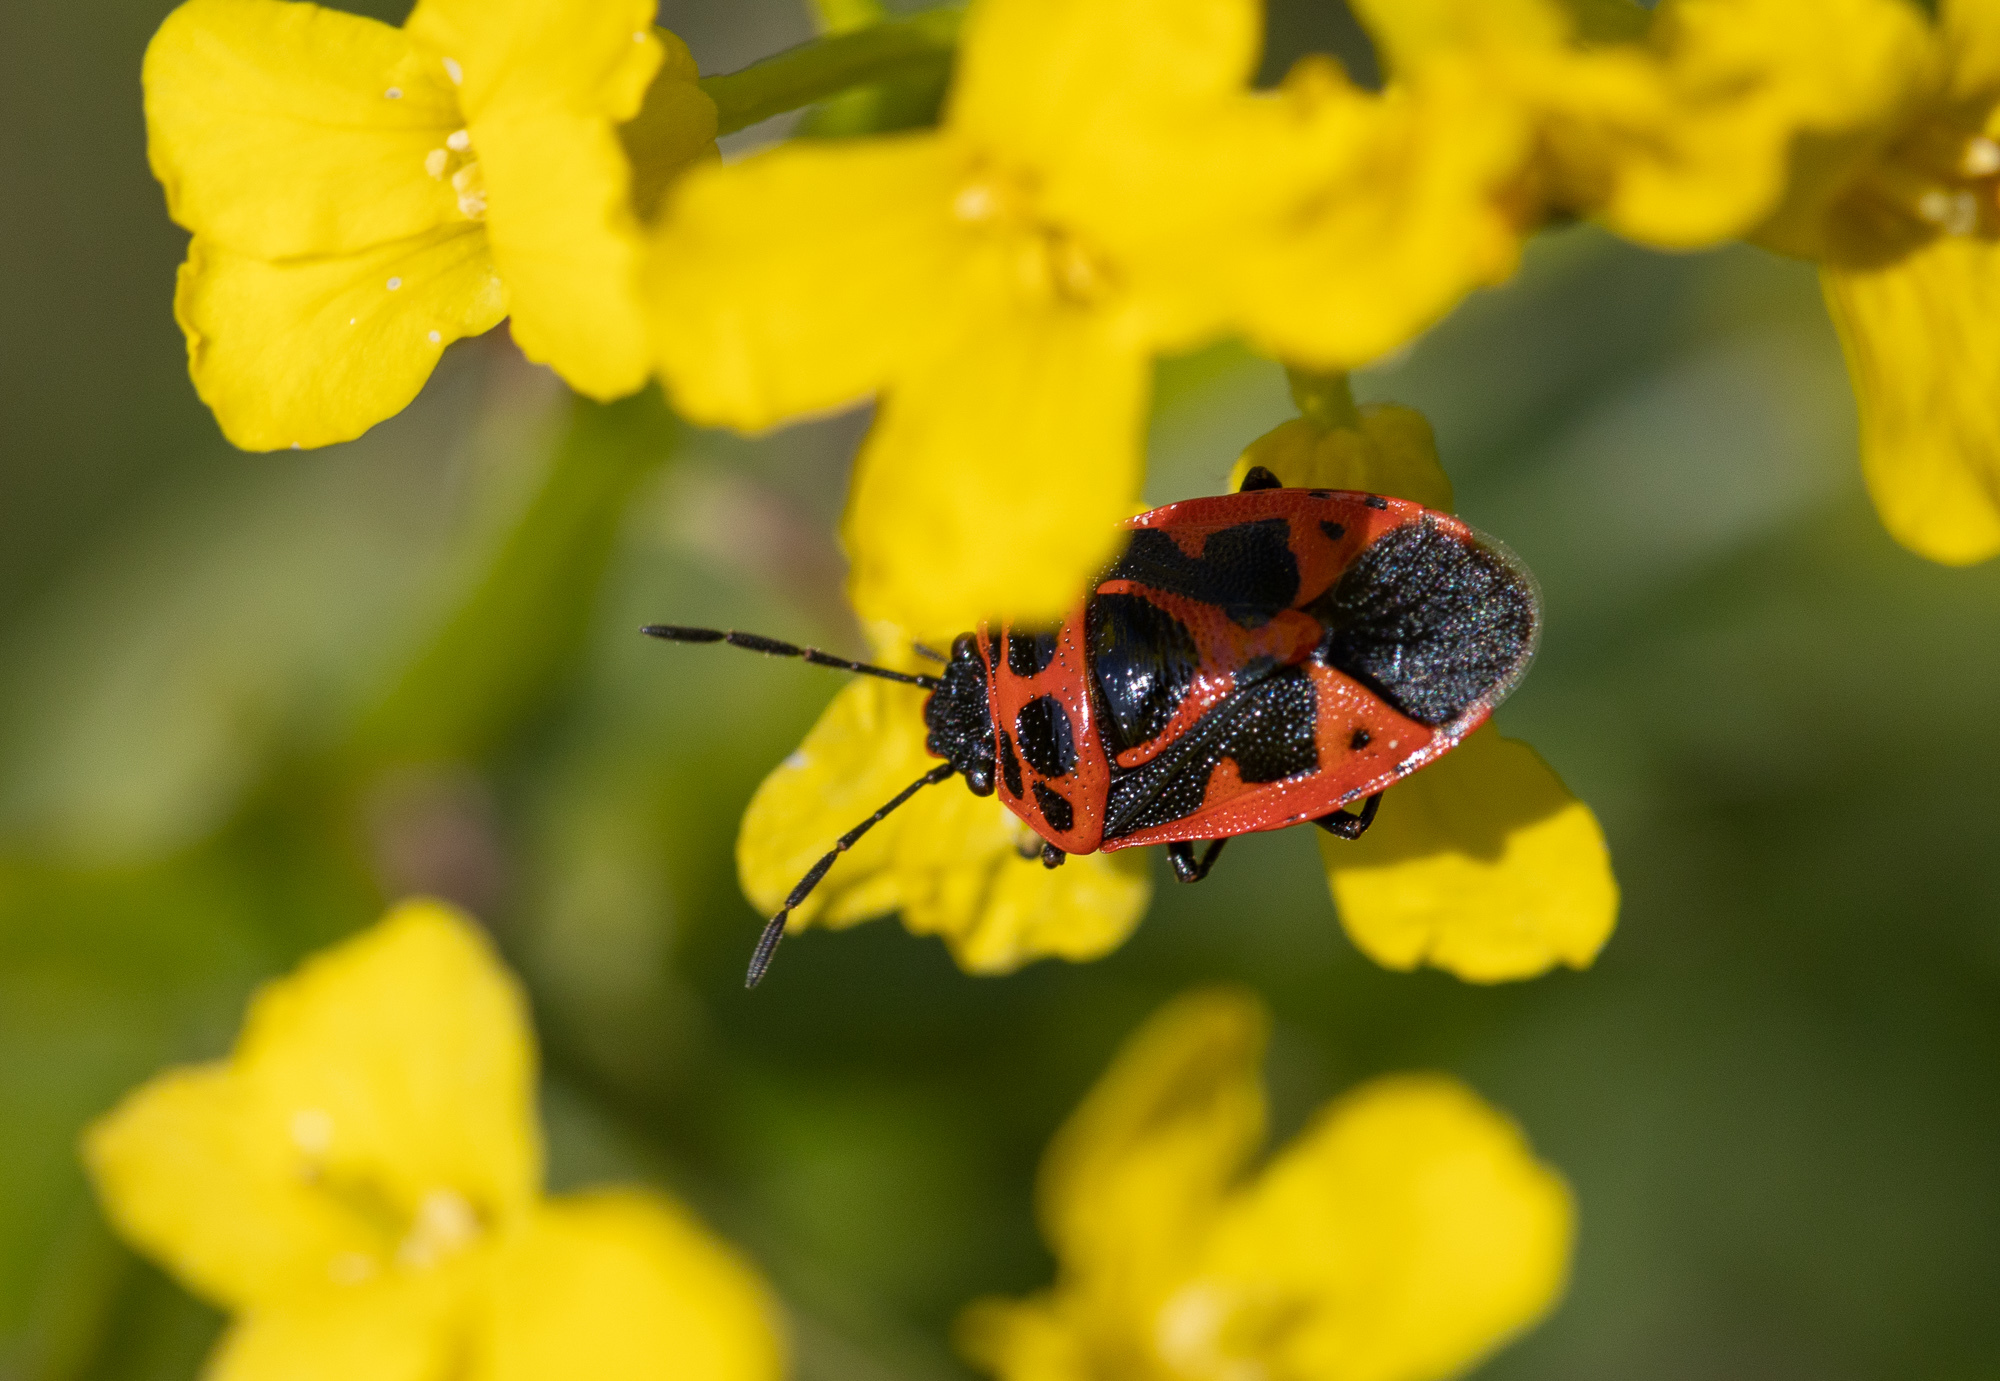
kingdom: Animalia
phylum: Arthropoda
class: Insecta
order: Hemiptera
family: Pentatomidae
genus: Eurydema
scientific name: Eurydema dominulus
